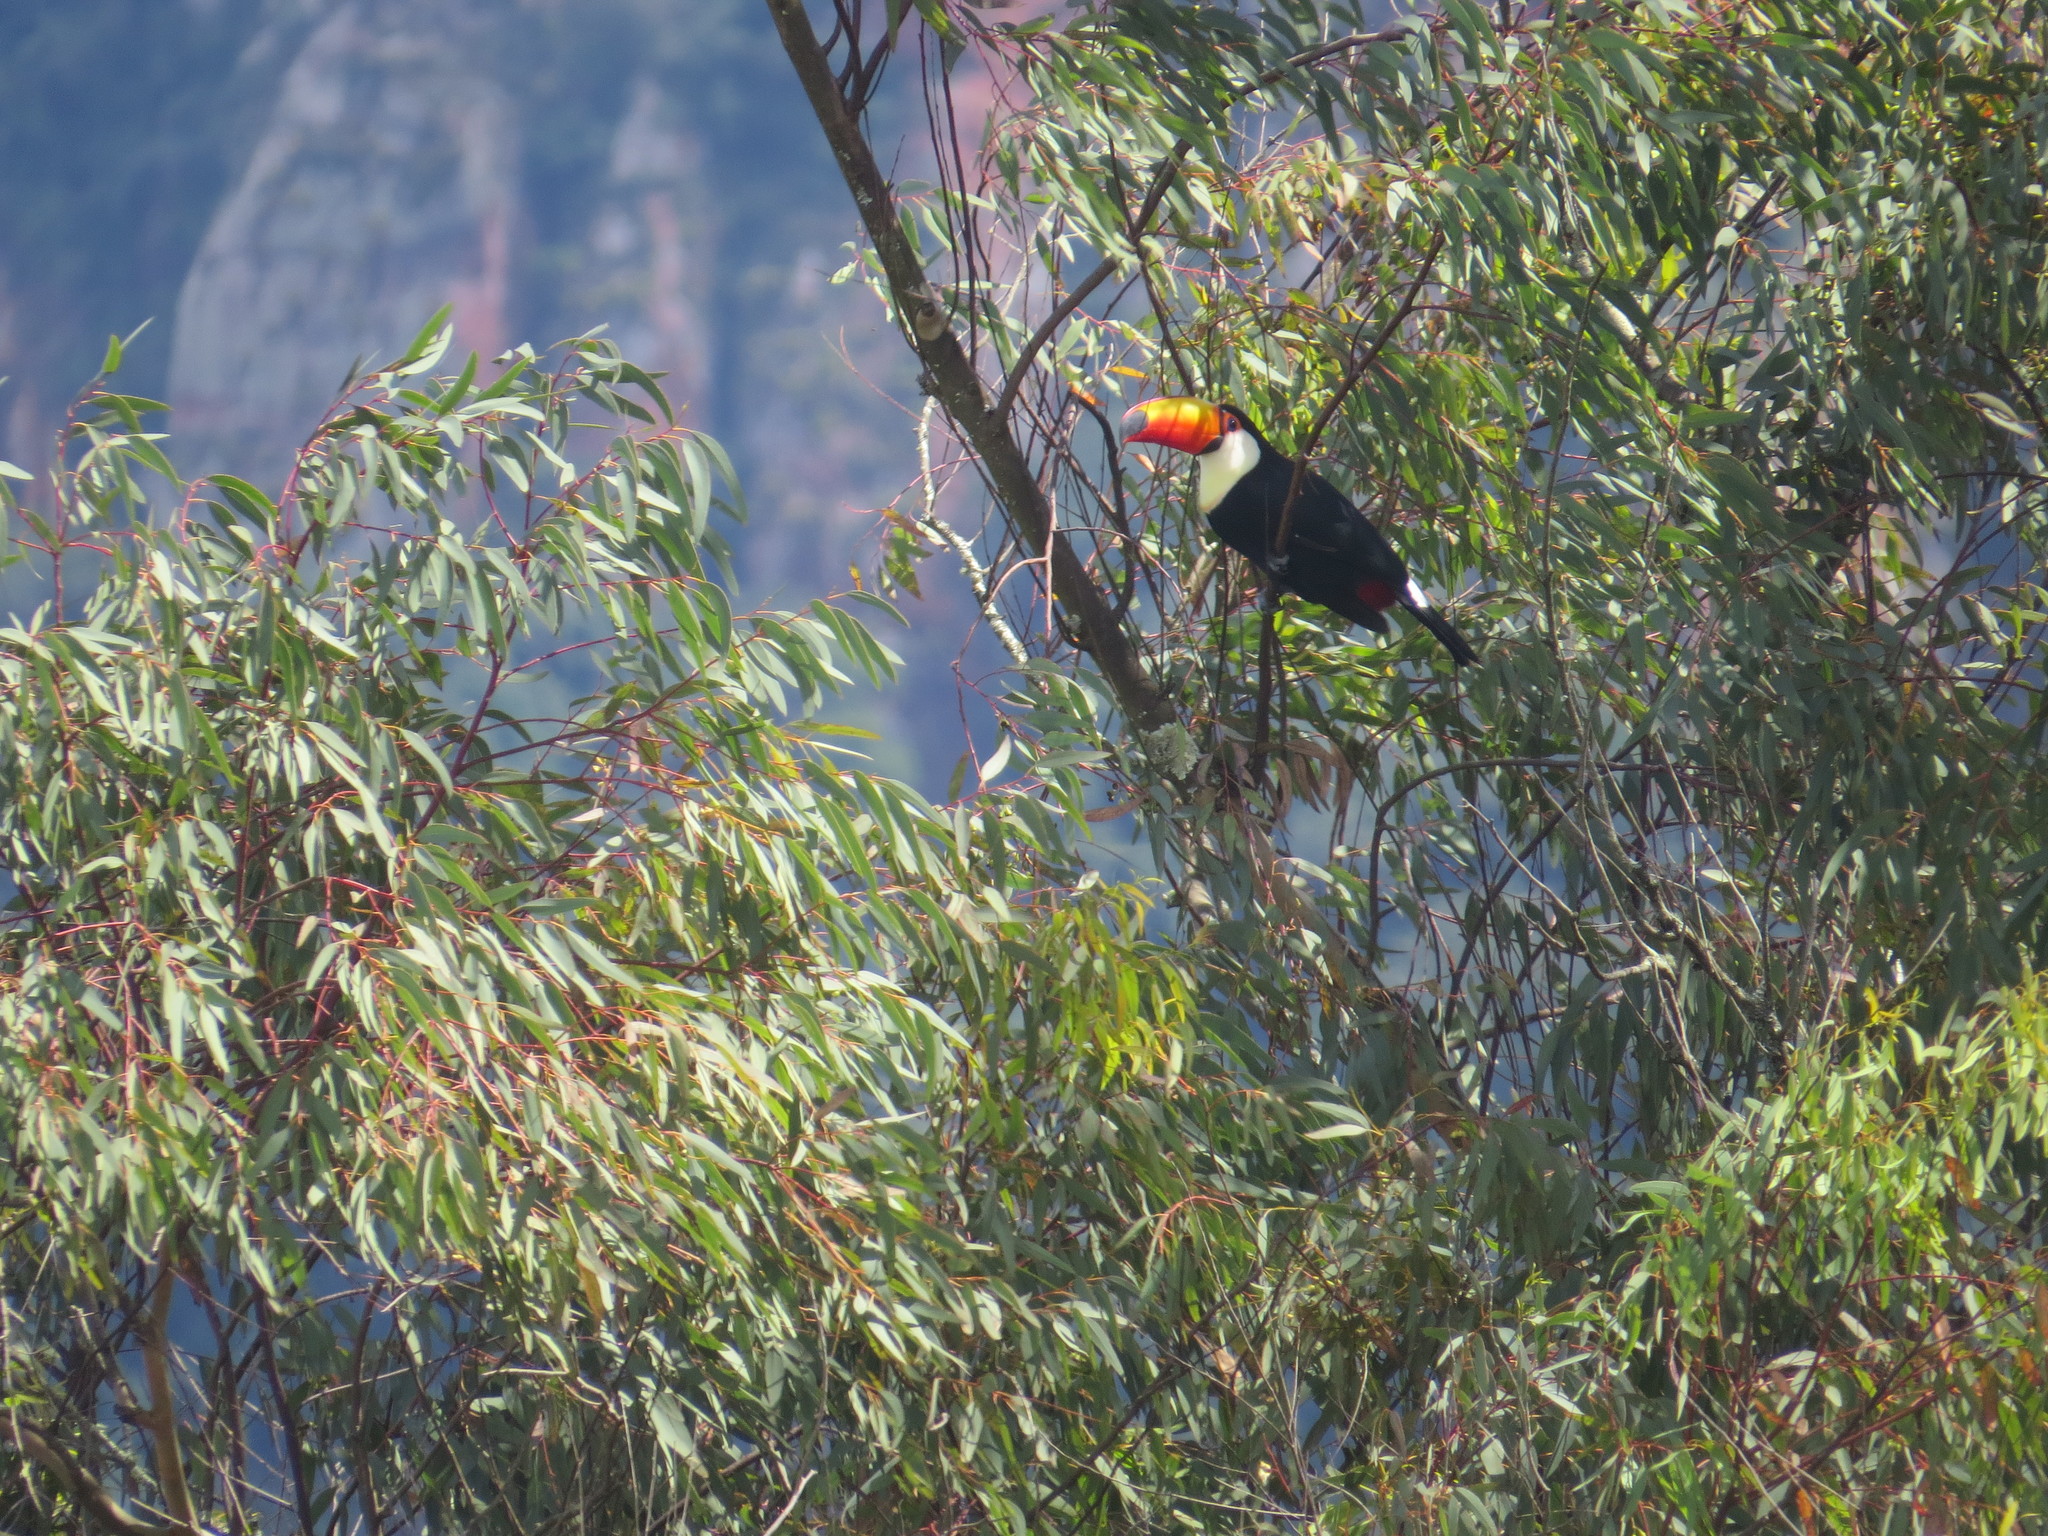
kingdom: Animalia
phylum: Chordata
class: Aves
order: Piciformes
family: Ramphastidae
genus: Ramphastos
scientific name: Ramphastos toco
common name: Toco toucan
